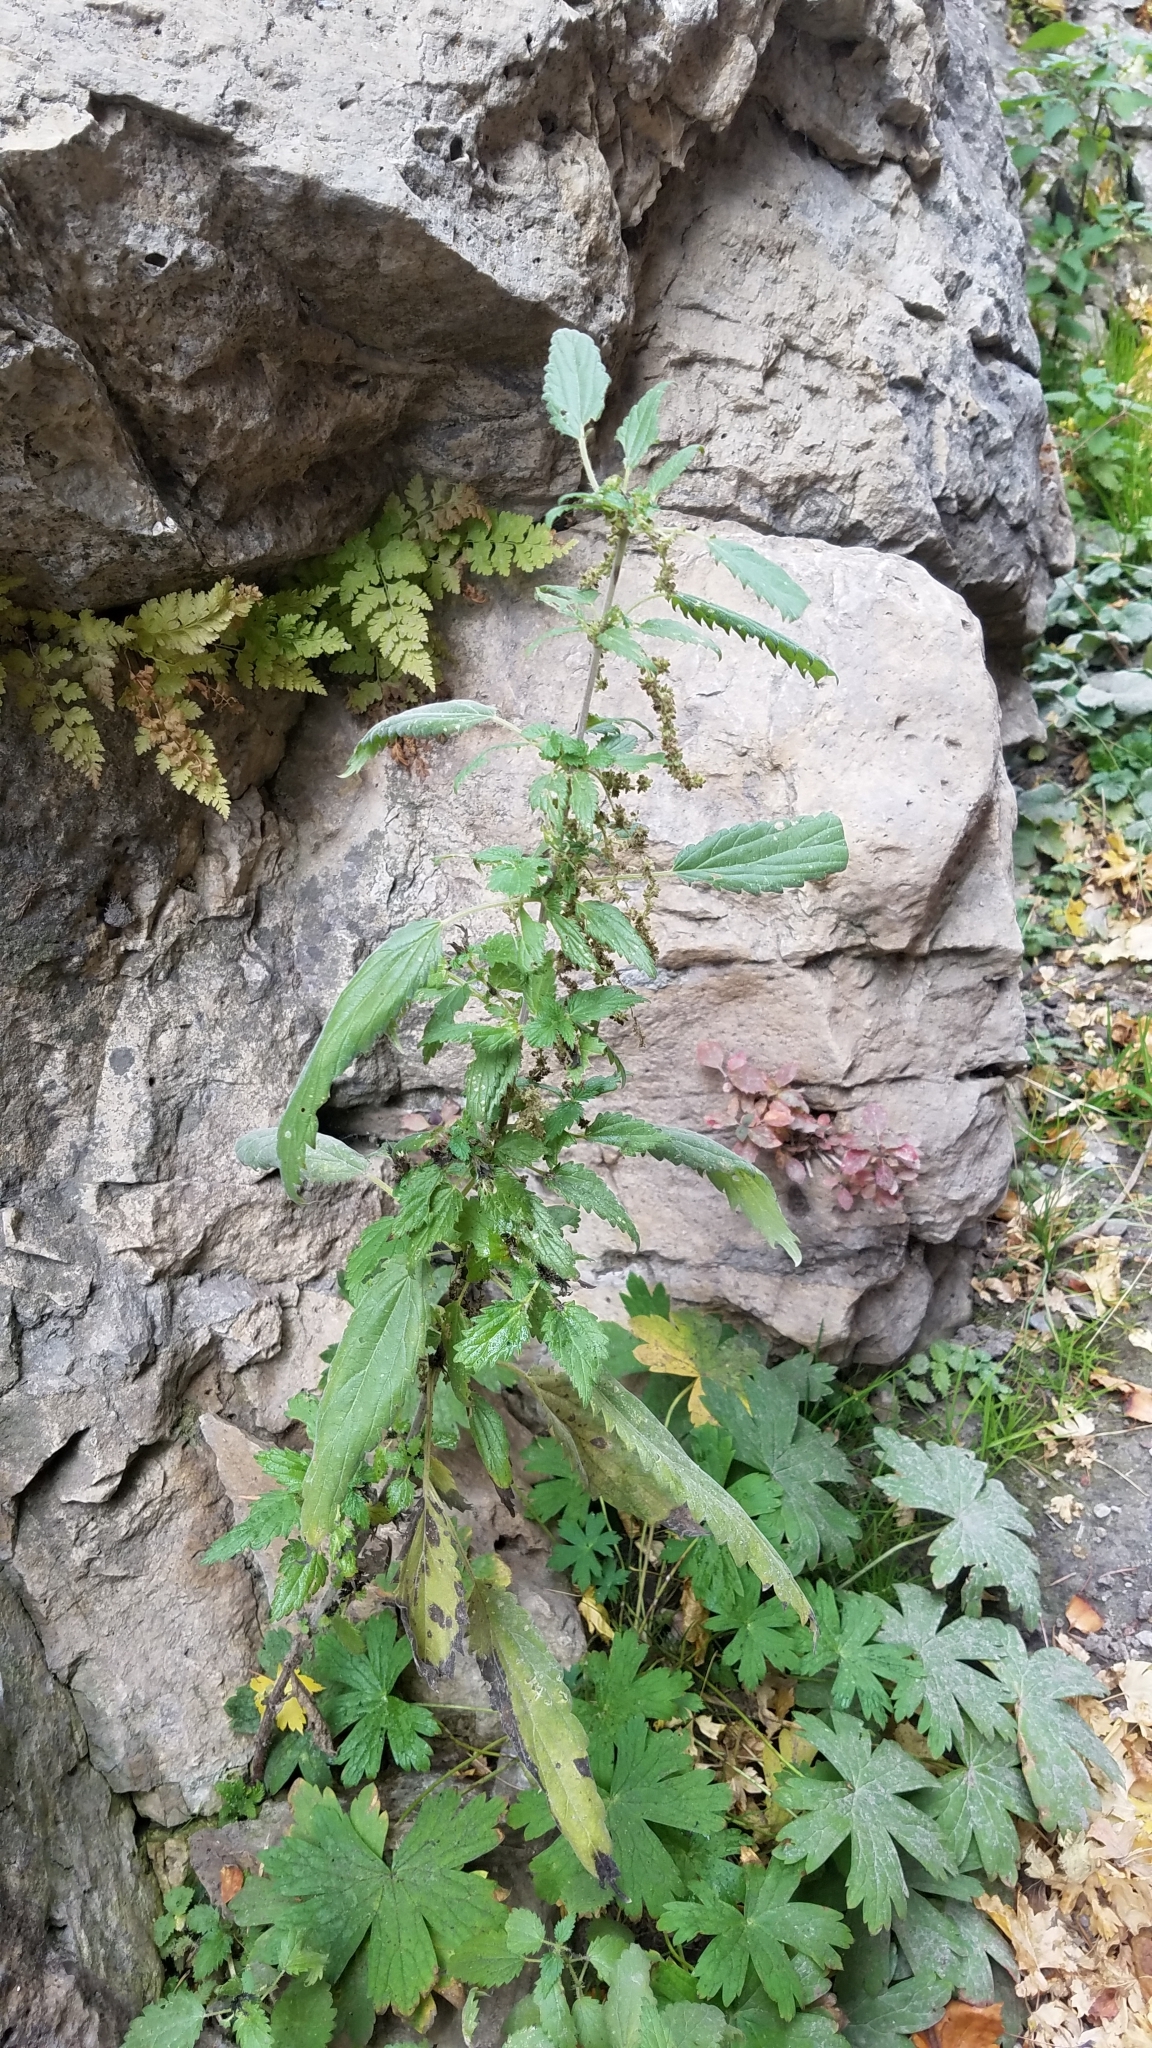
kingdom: Plantae
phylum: Tracheophyta
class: Magnoliopsida
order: Rosales
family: Urticaceae
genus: Urtica
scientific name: Urtica gracilis
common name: Slender stinging nettle
